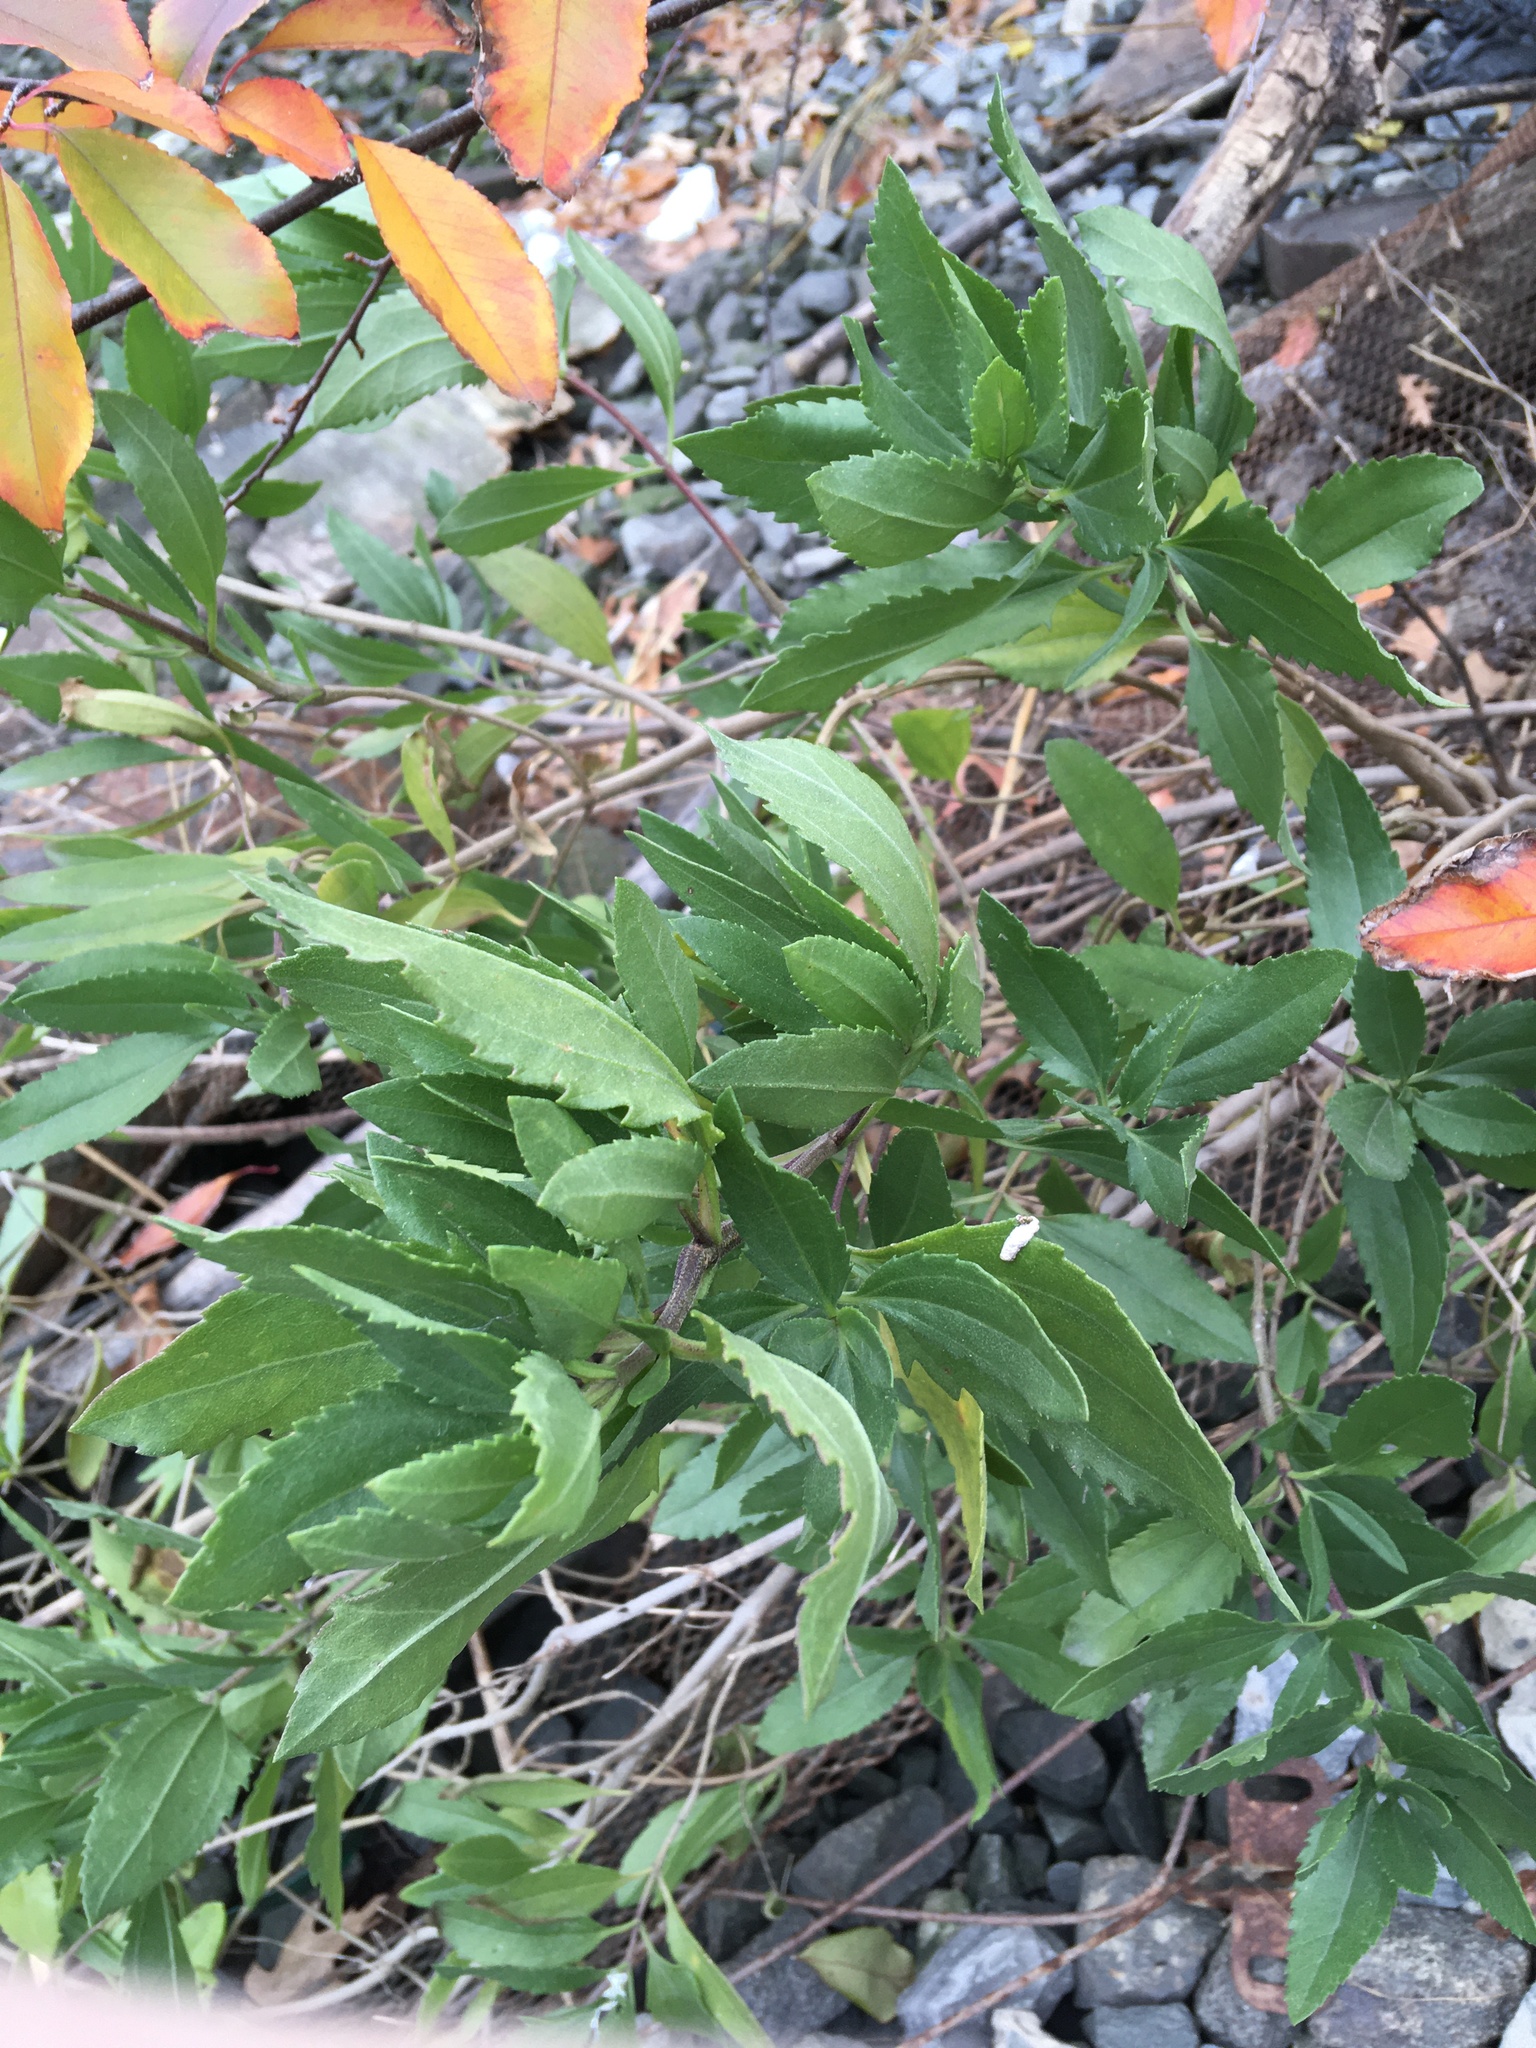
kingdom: Plantae
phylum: Tracheophyta
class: Magnoliopsida
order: Asterales
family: Asteraceae
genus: Iva
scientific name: Iva frutescens
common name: Big-leaved marsh-elder
